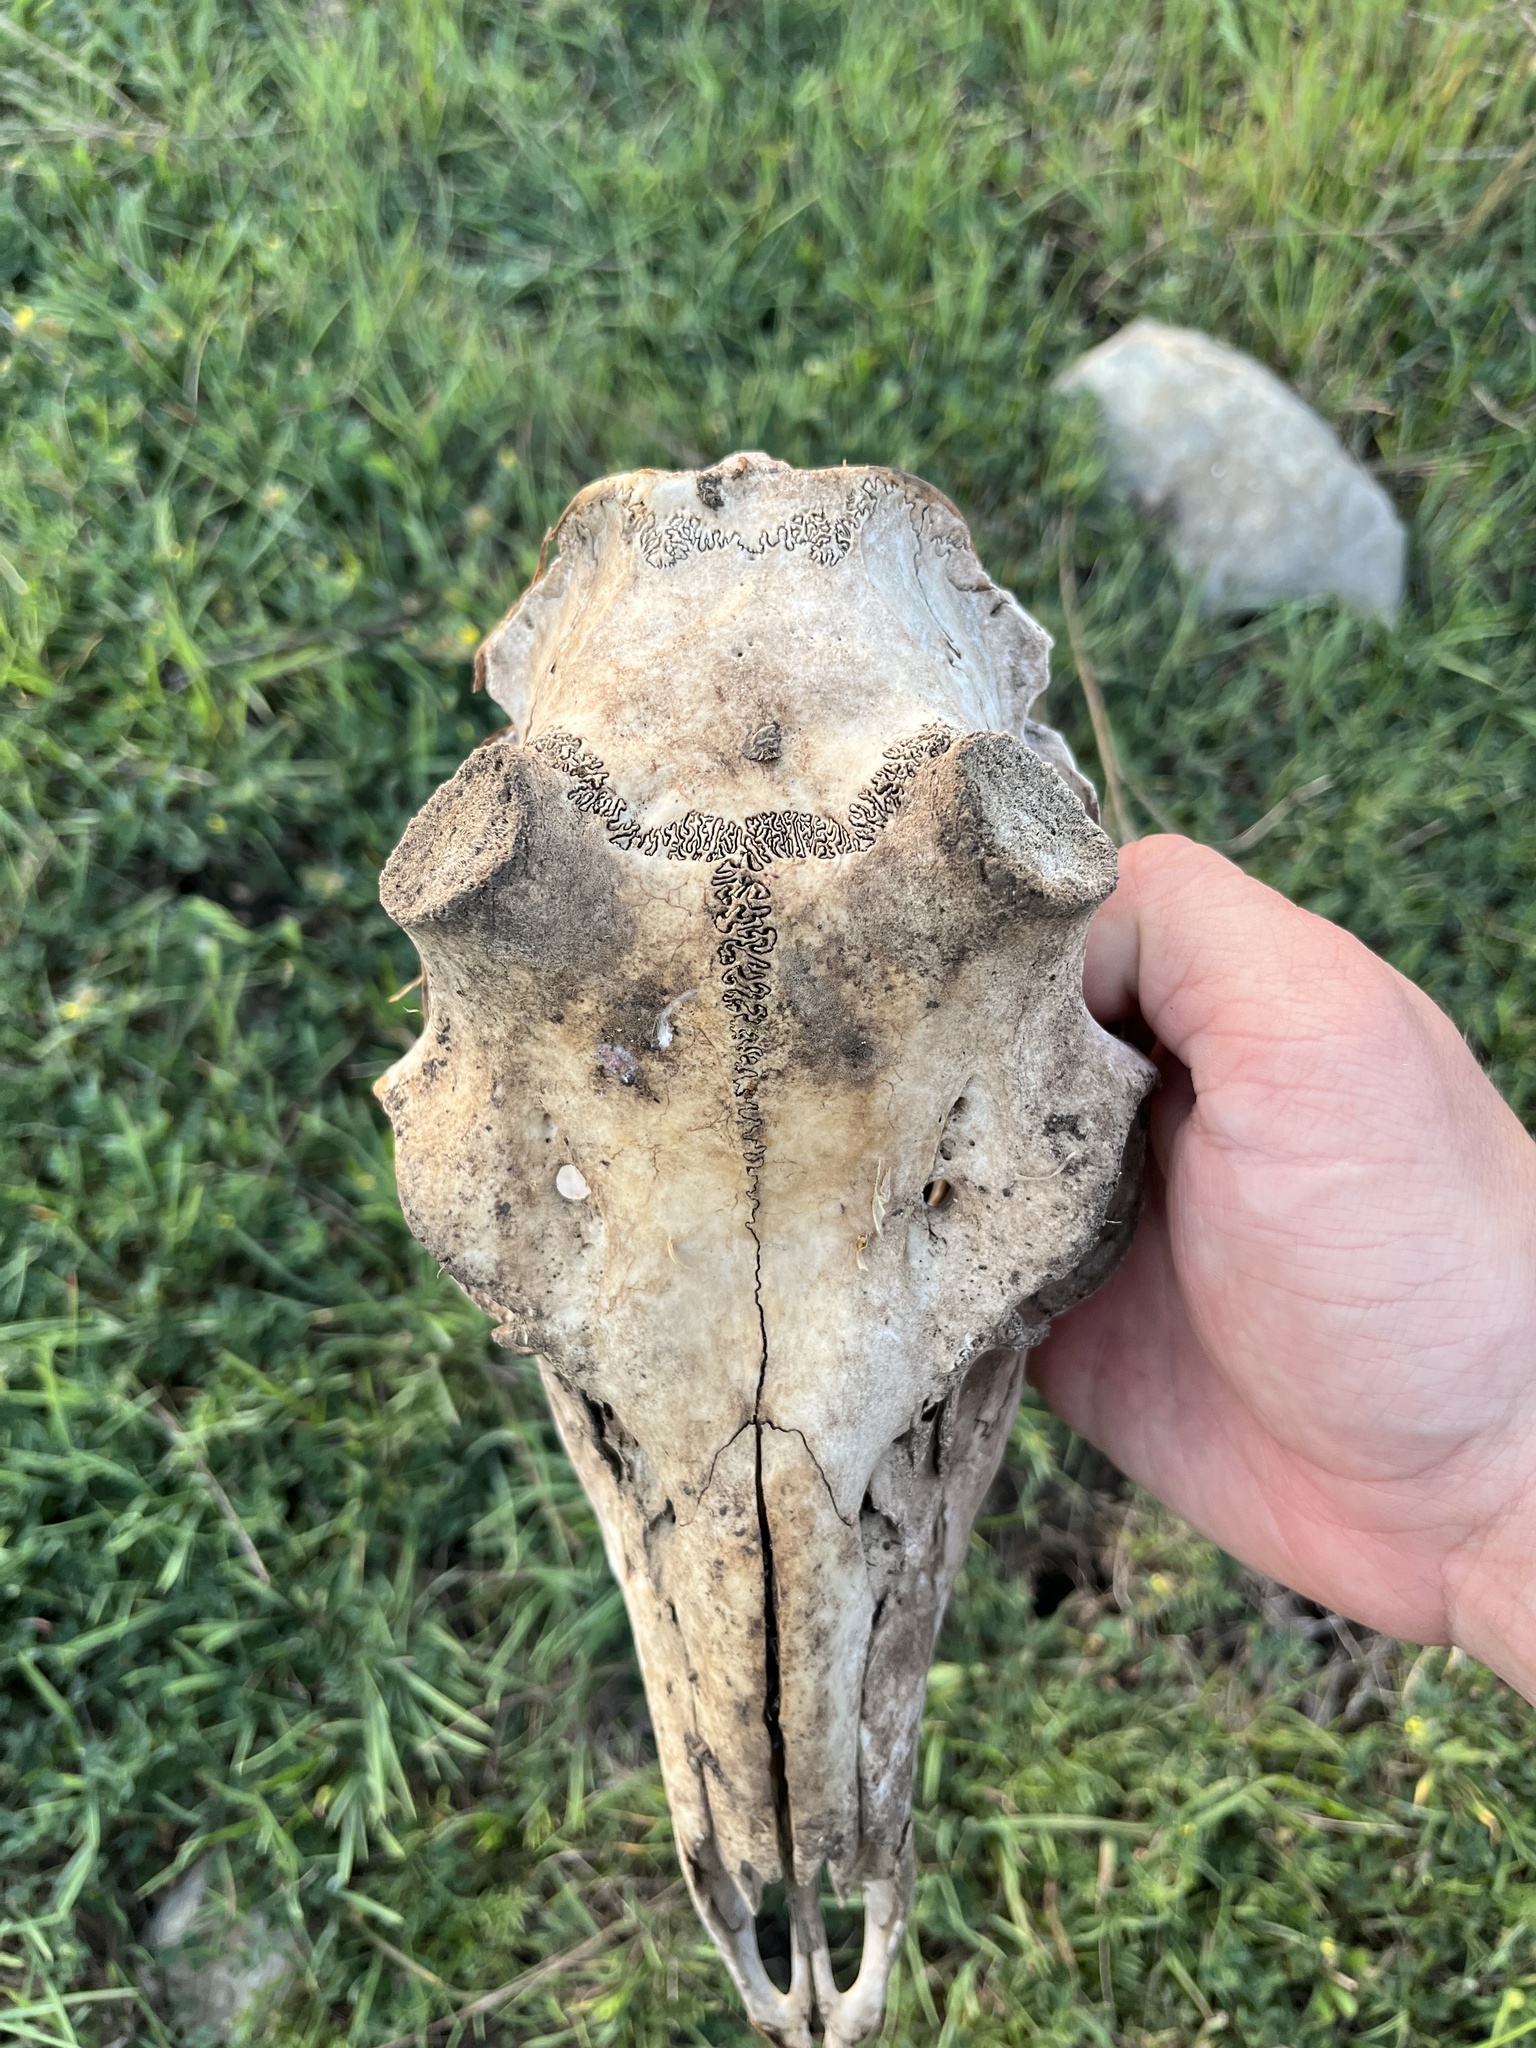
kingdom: Animalia
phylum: Chordata
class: Mammalia
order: Artiodactyla
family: Cervidae
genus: Odocoileus
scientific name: Odocoileus virginianus
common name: White-tailed deer
